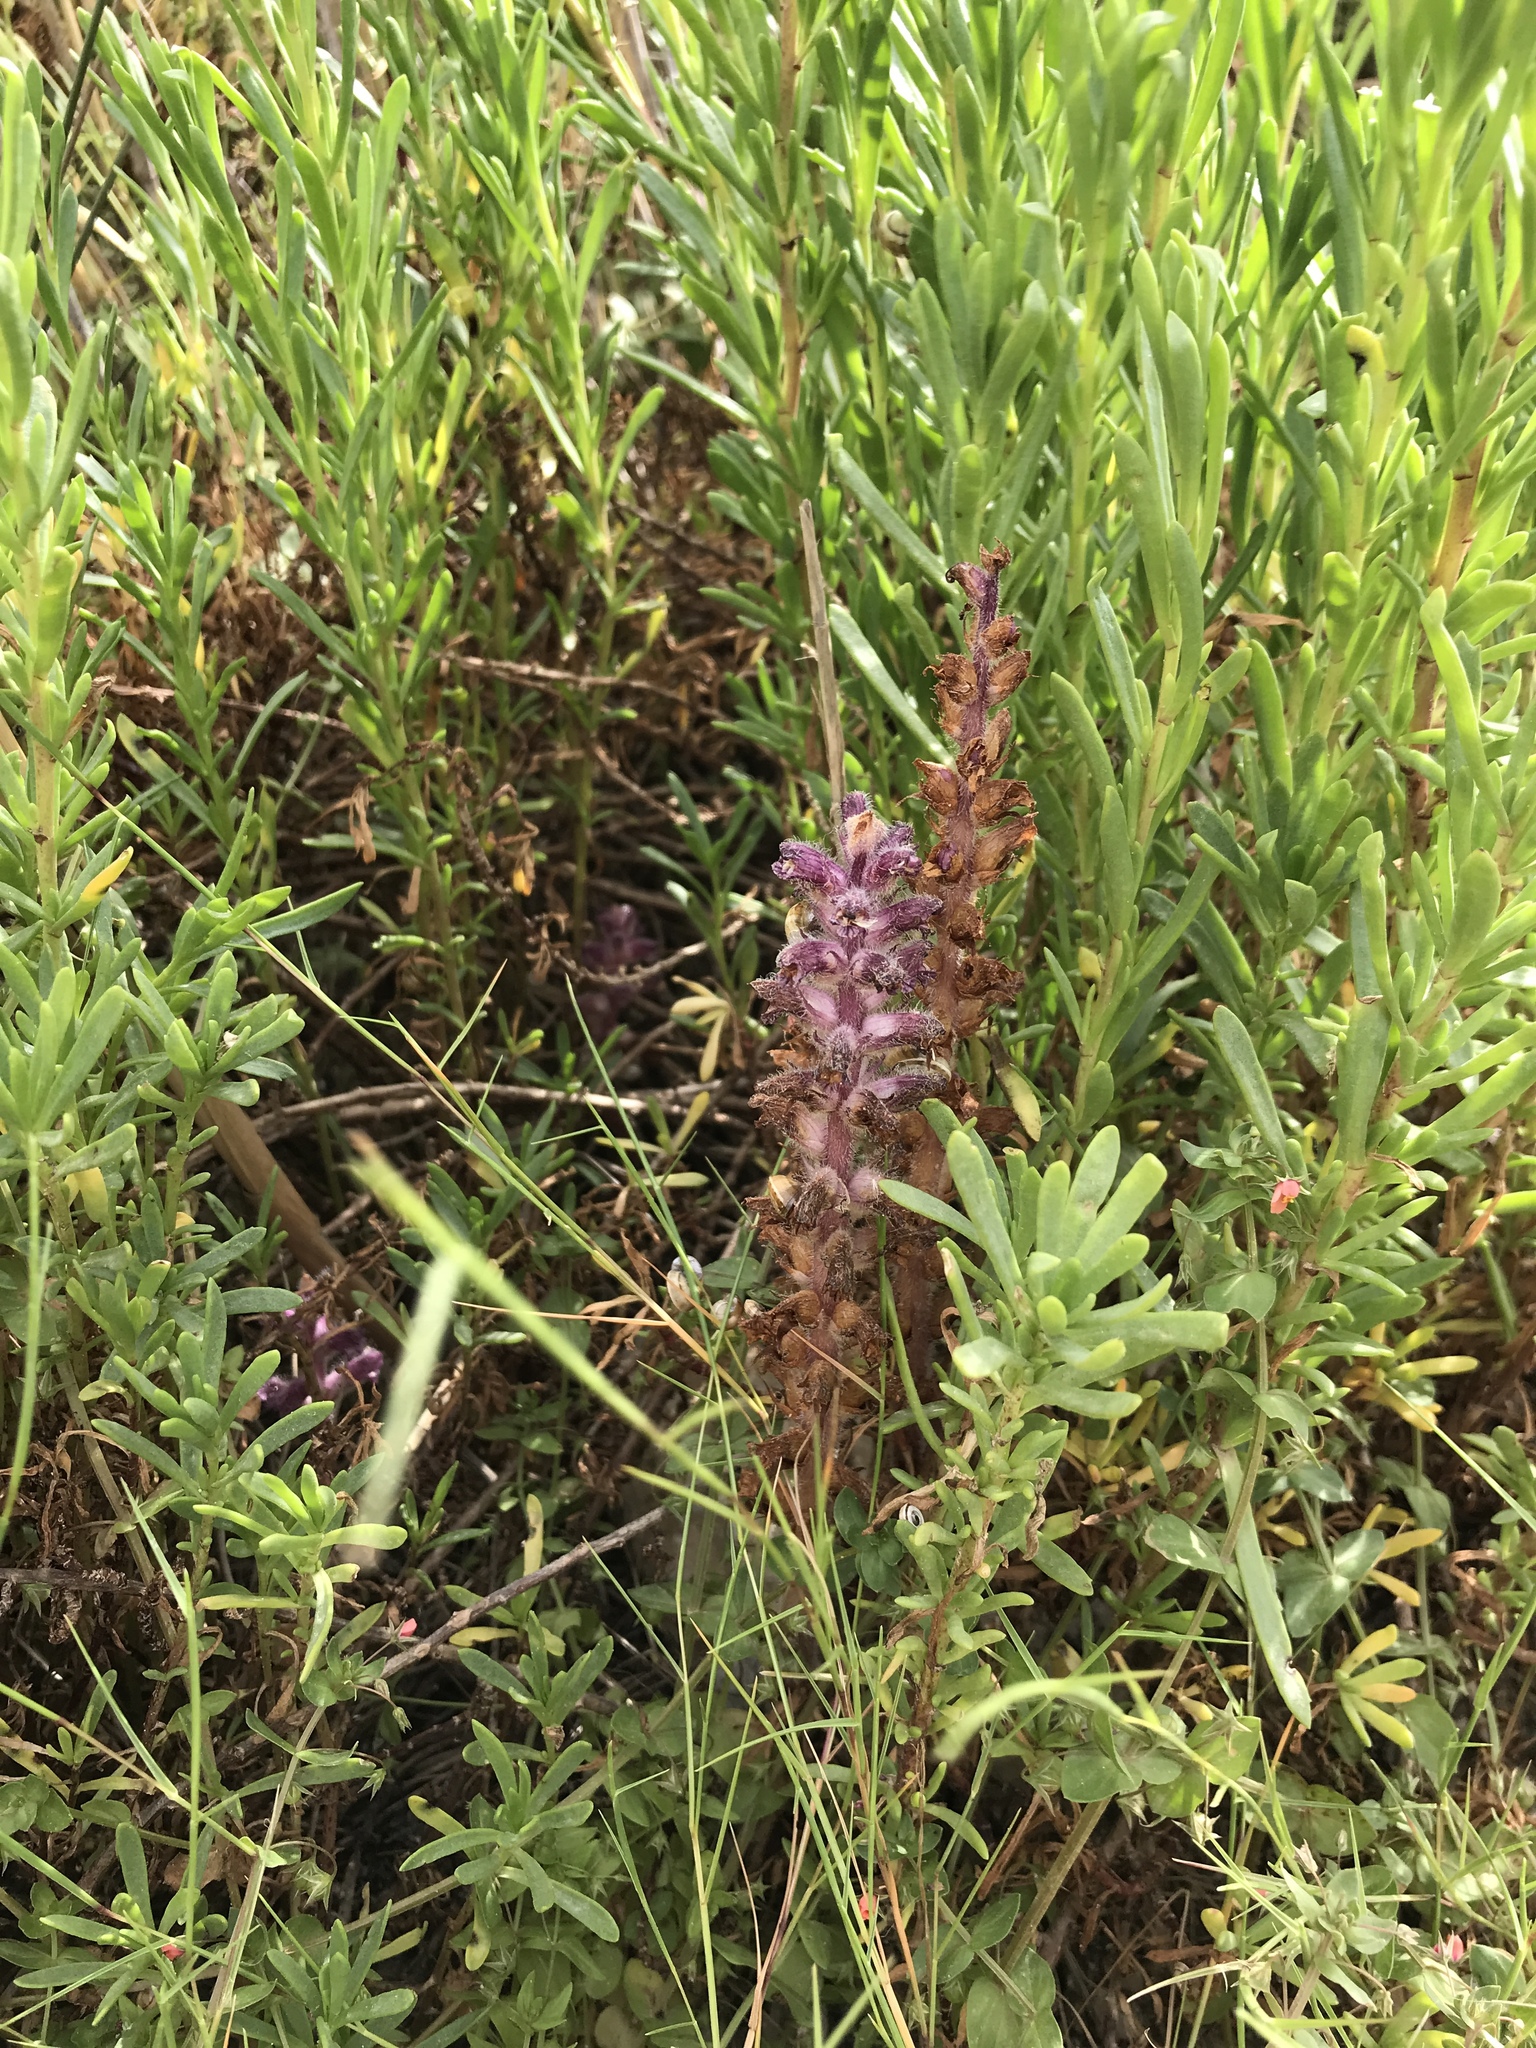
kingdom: Plantae
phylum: Tracheophyta
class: Magnoliopsida
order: Lamiales
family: Orobanchaceae
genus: Orobanche
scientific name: Orobanche pubescens
